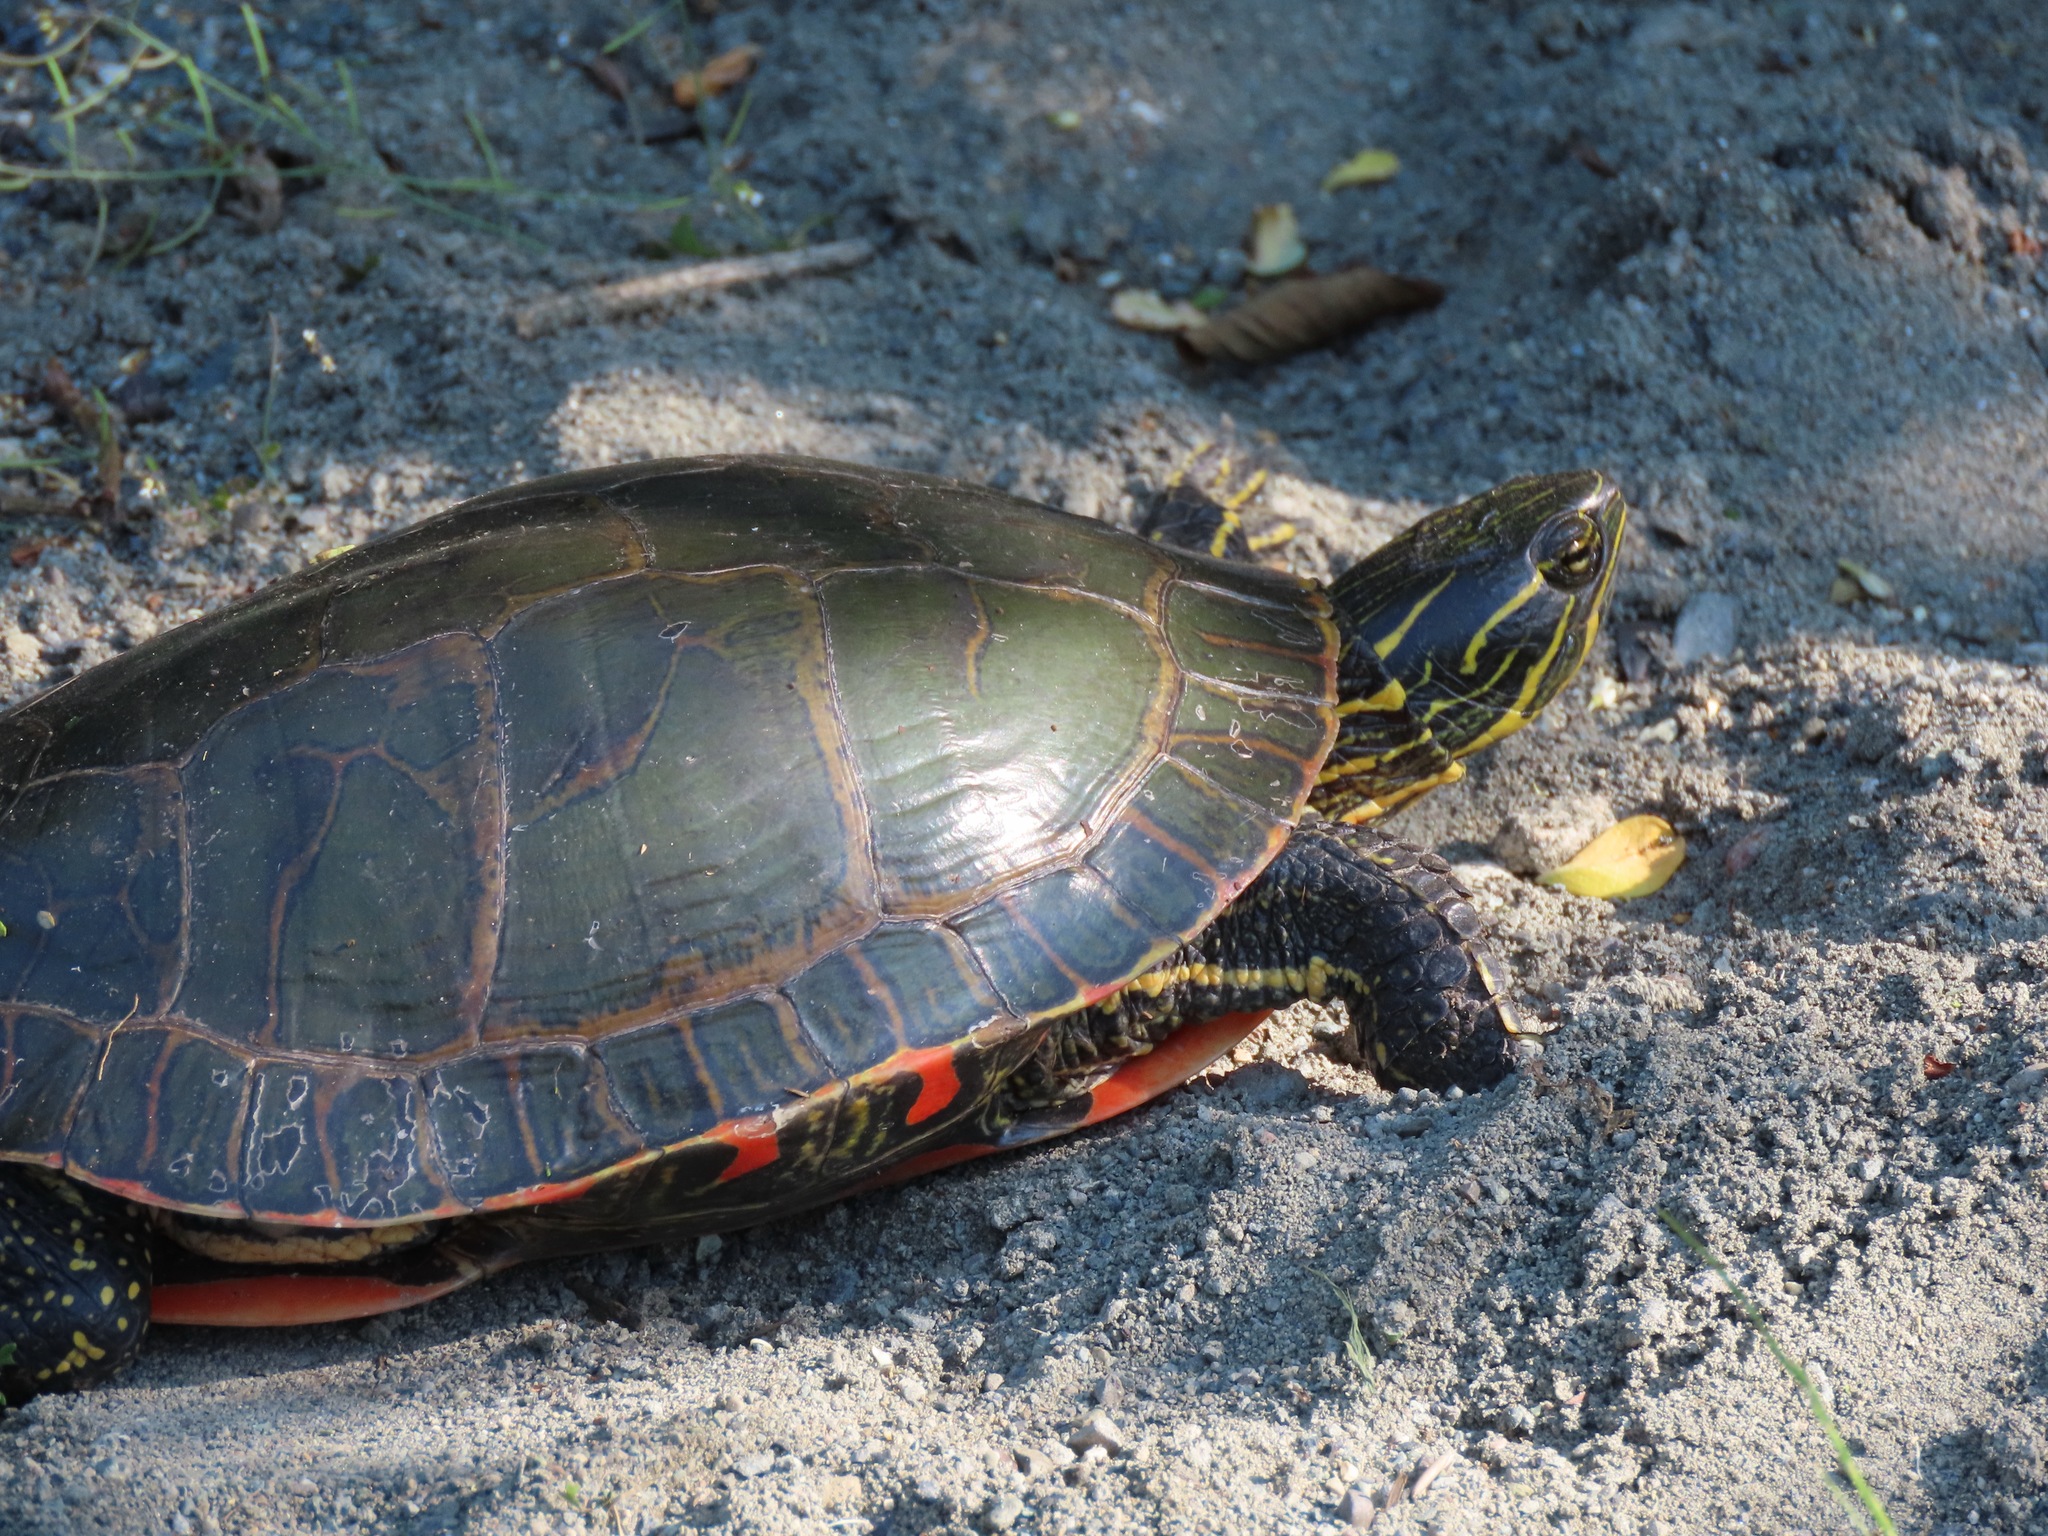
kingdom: Animalia
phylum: Chordata
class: Testudines
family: Emydidae
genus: Chrysemys
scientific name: Chrysemys picta
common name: Painted turtle
